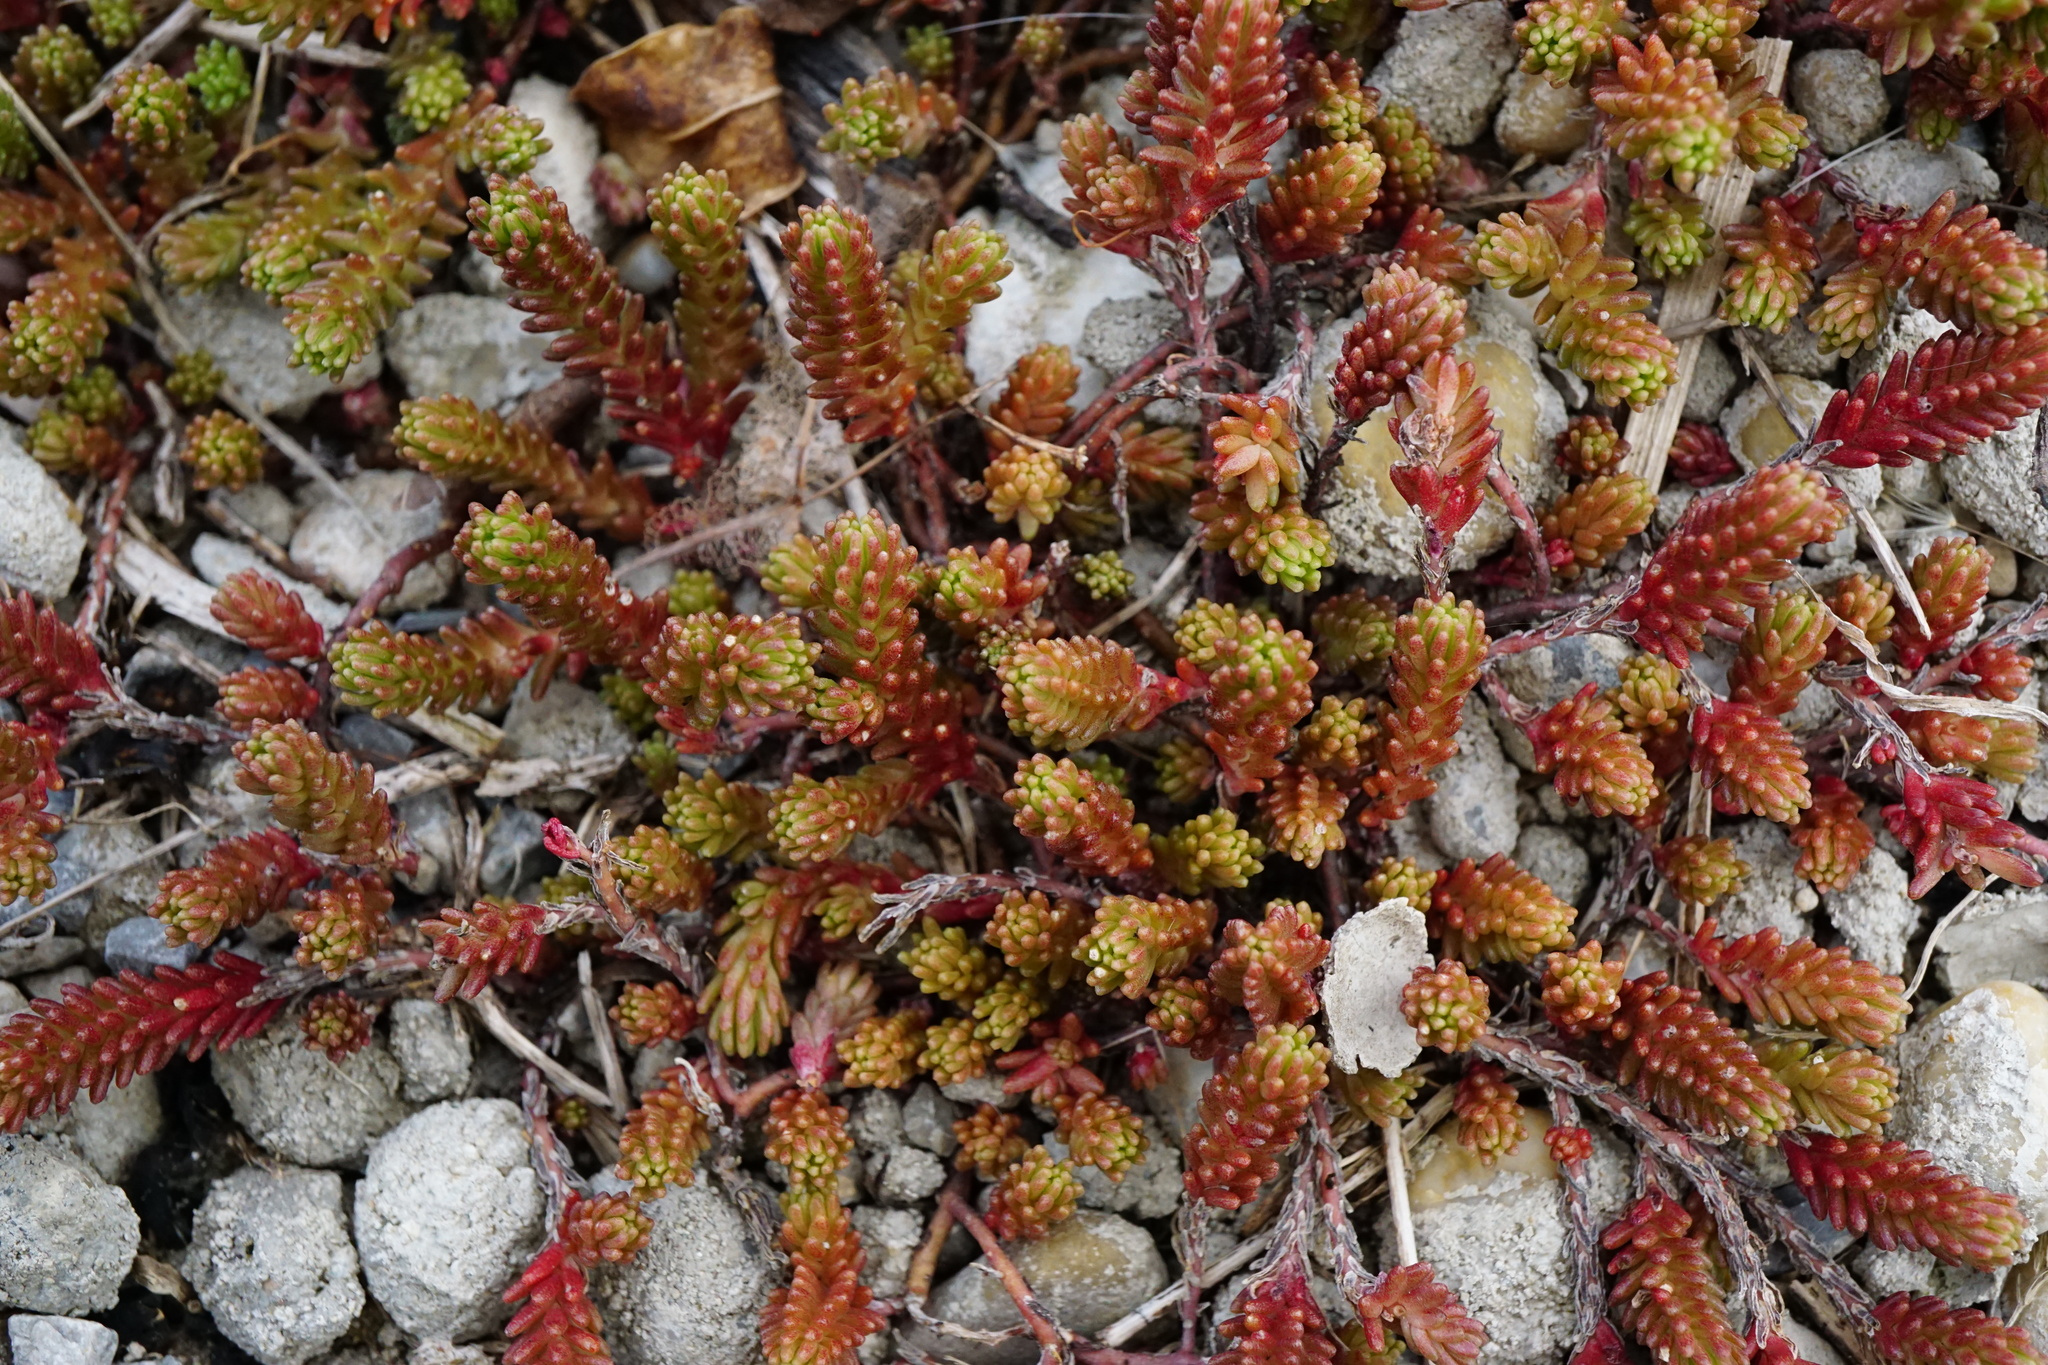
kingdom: Plantae
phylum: Tracheophyta
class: Magnoliopsida
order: Saxifragales
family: Crassulaceae
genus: Sedum
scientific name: Sedum sexangulare
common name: Tasteless stonecrop
